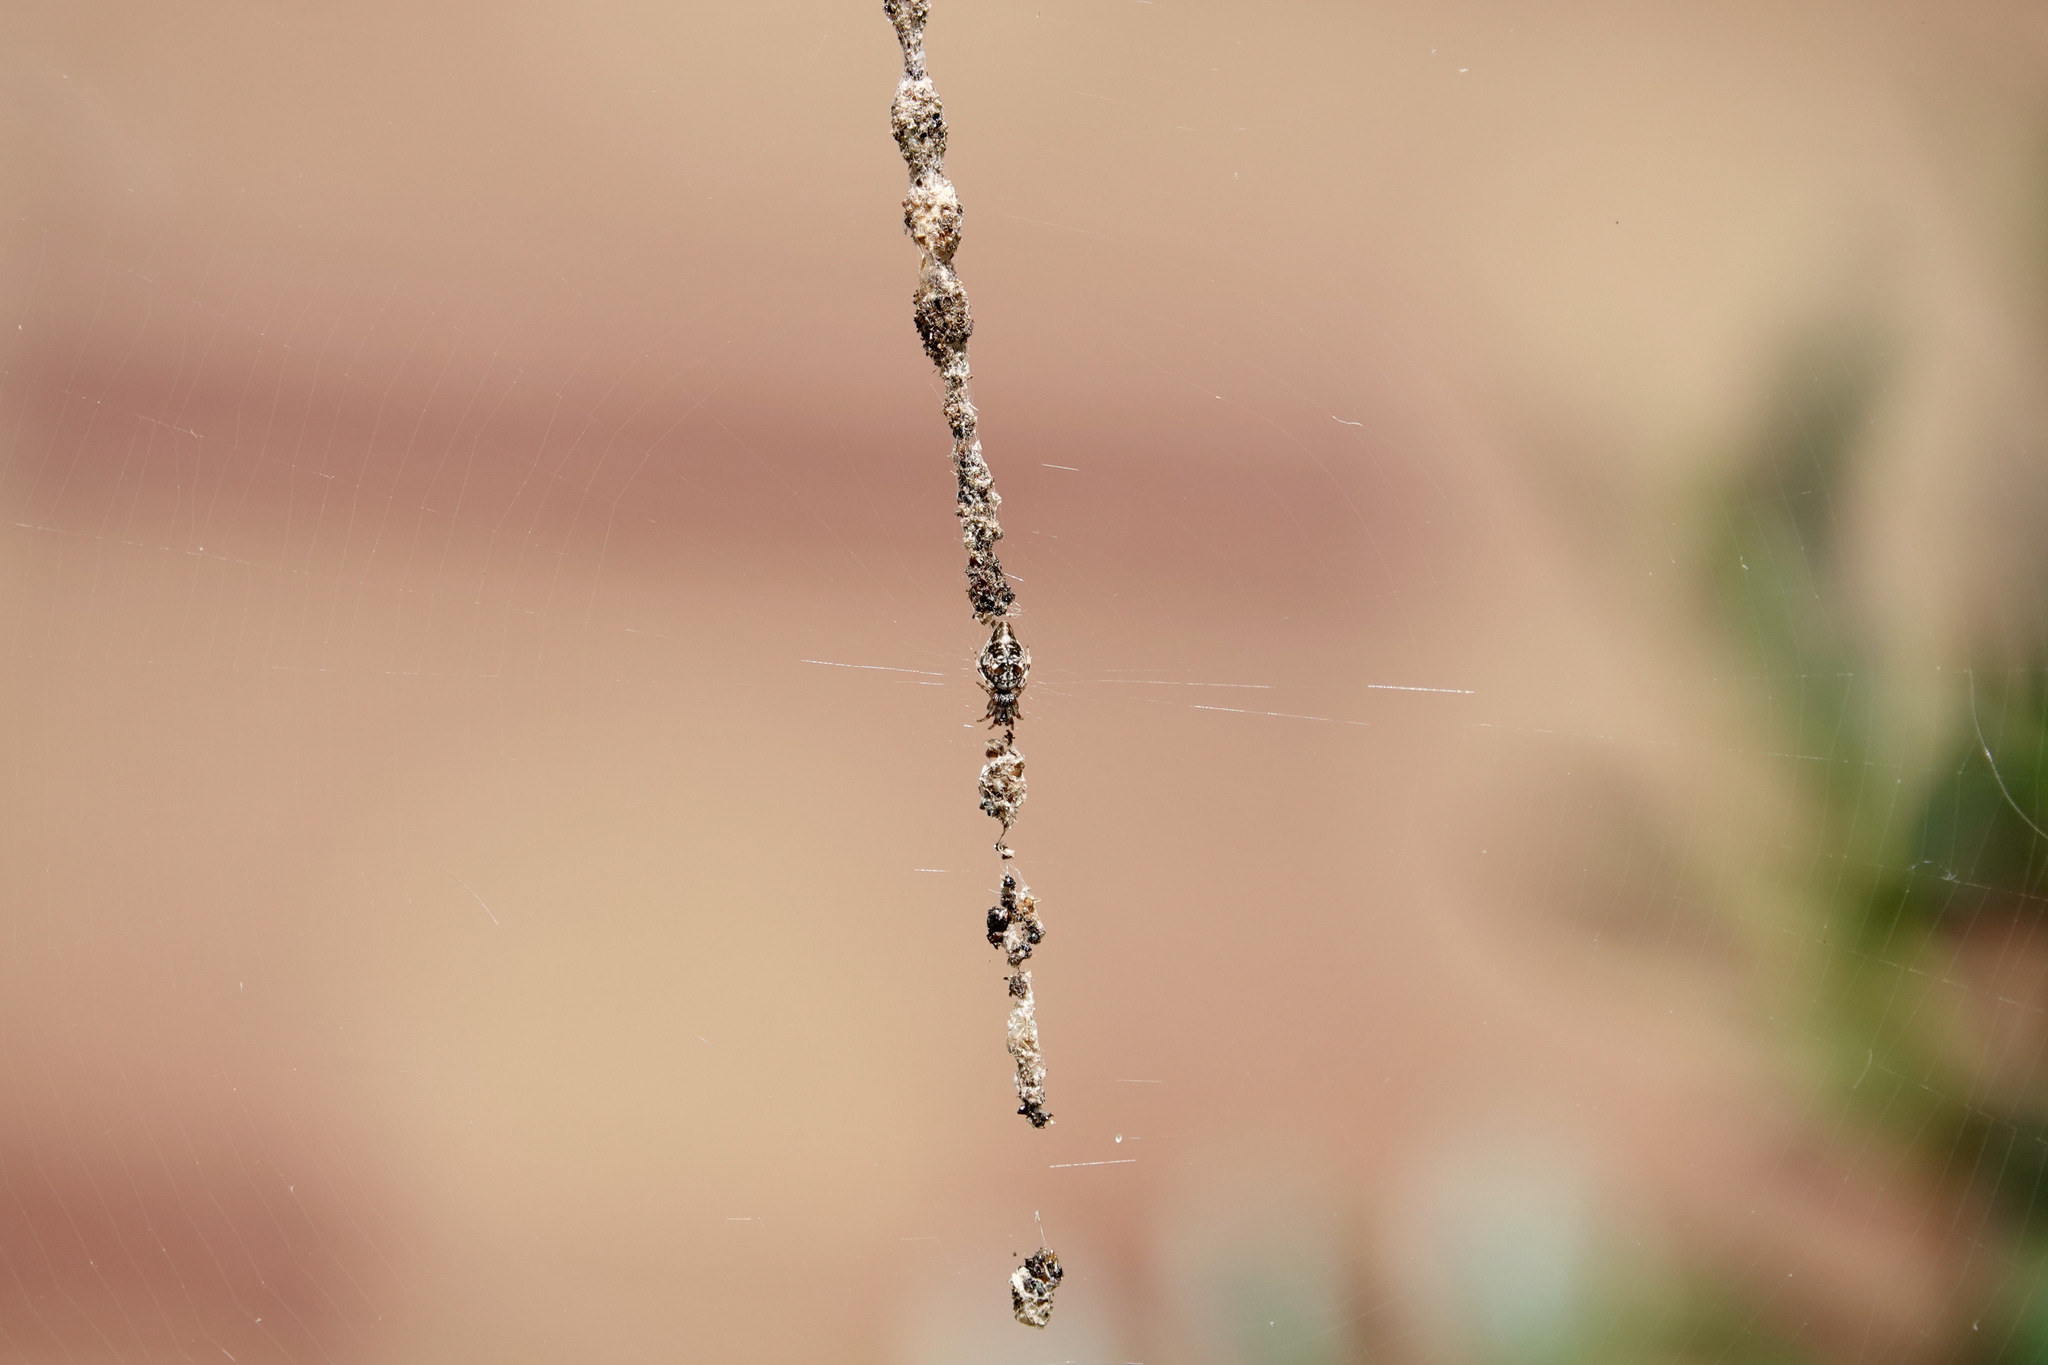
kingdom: Animalia
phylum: Arthropoda
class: Arachnida
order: Araneae
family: Araneidae
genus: Cyclosa
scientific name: Cyclosa turbinata
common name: Orb weavers
